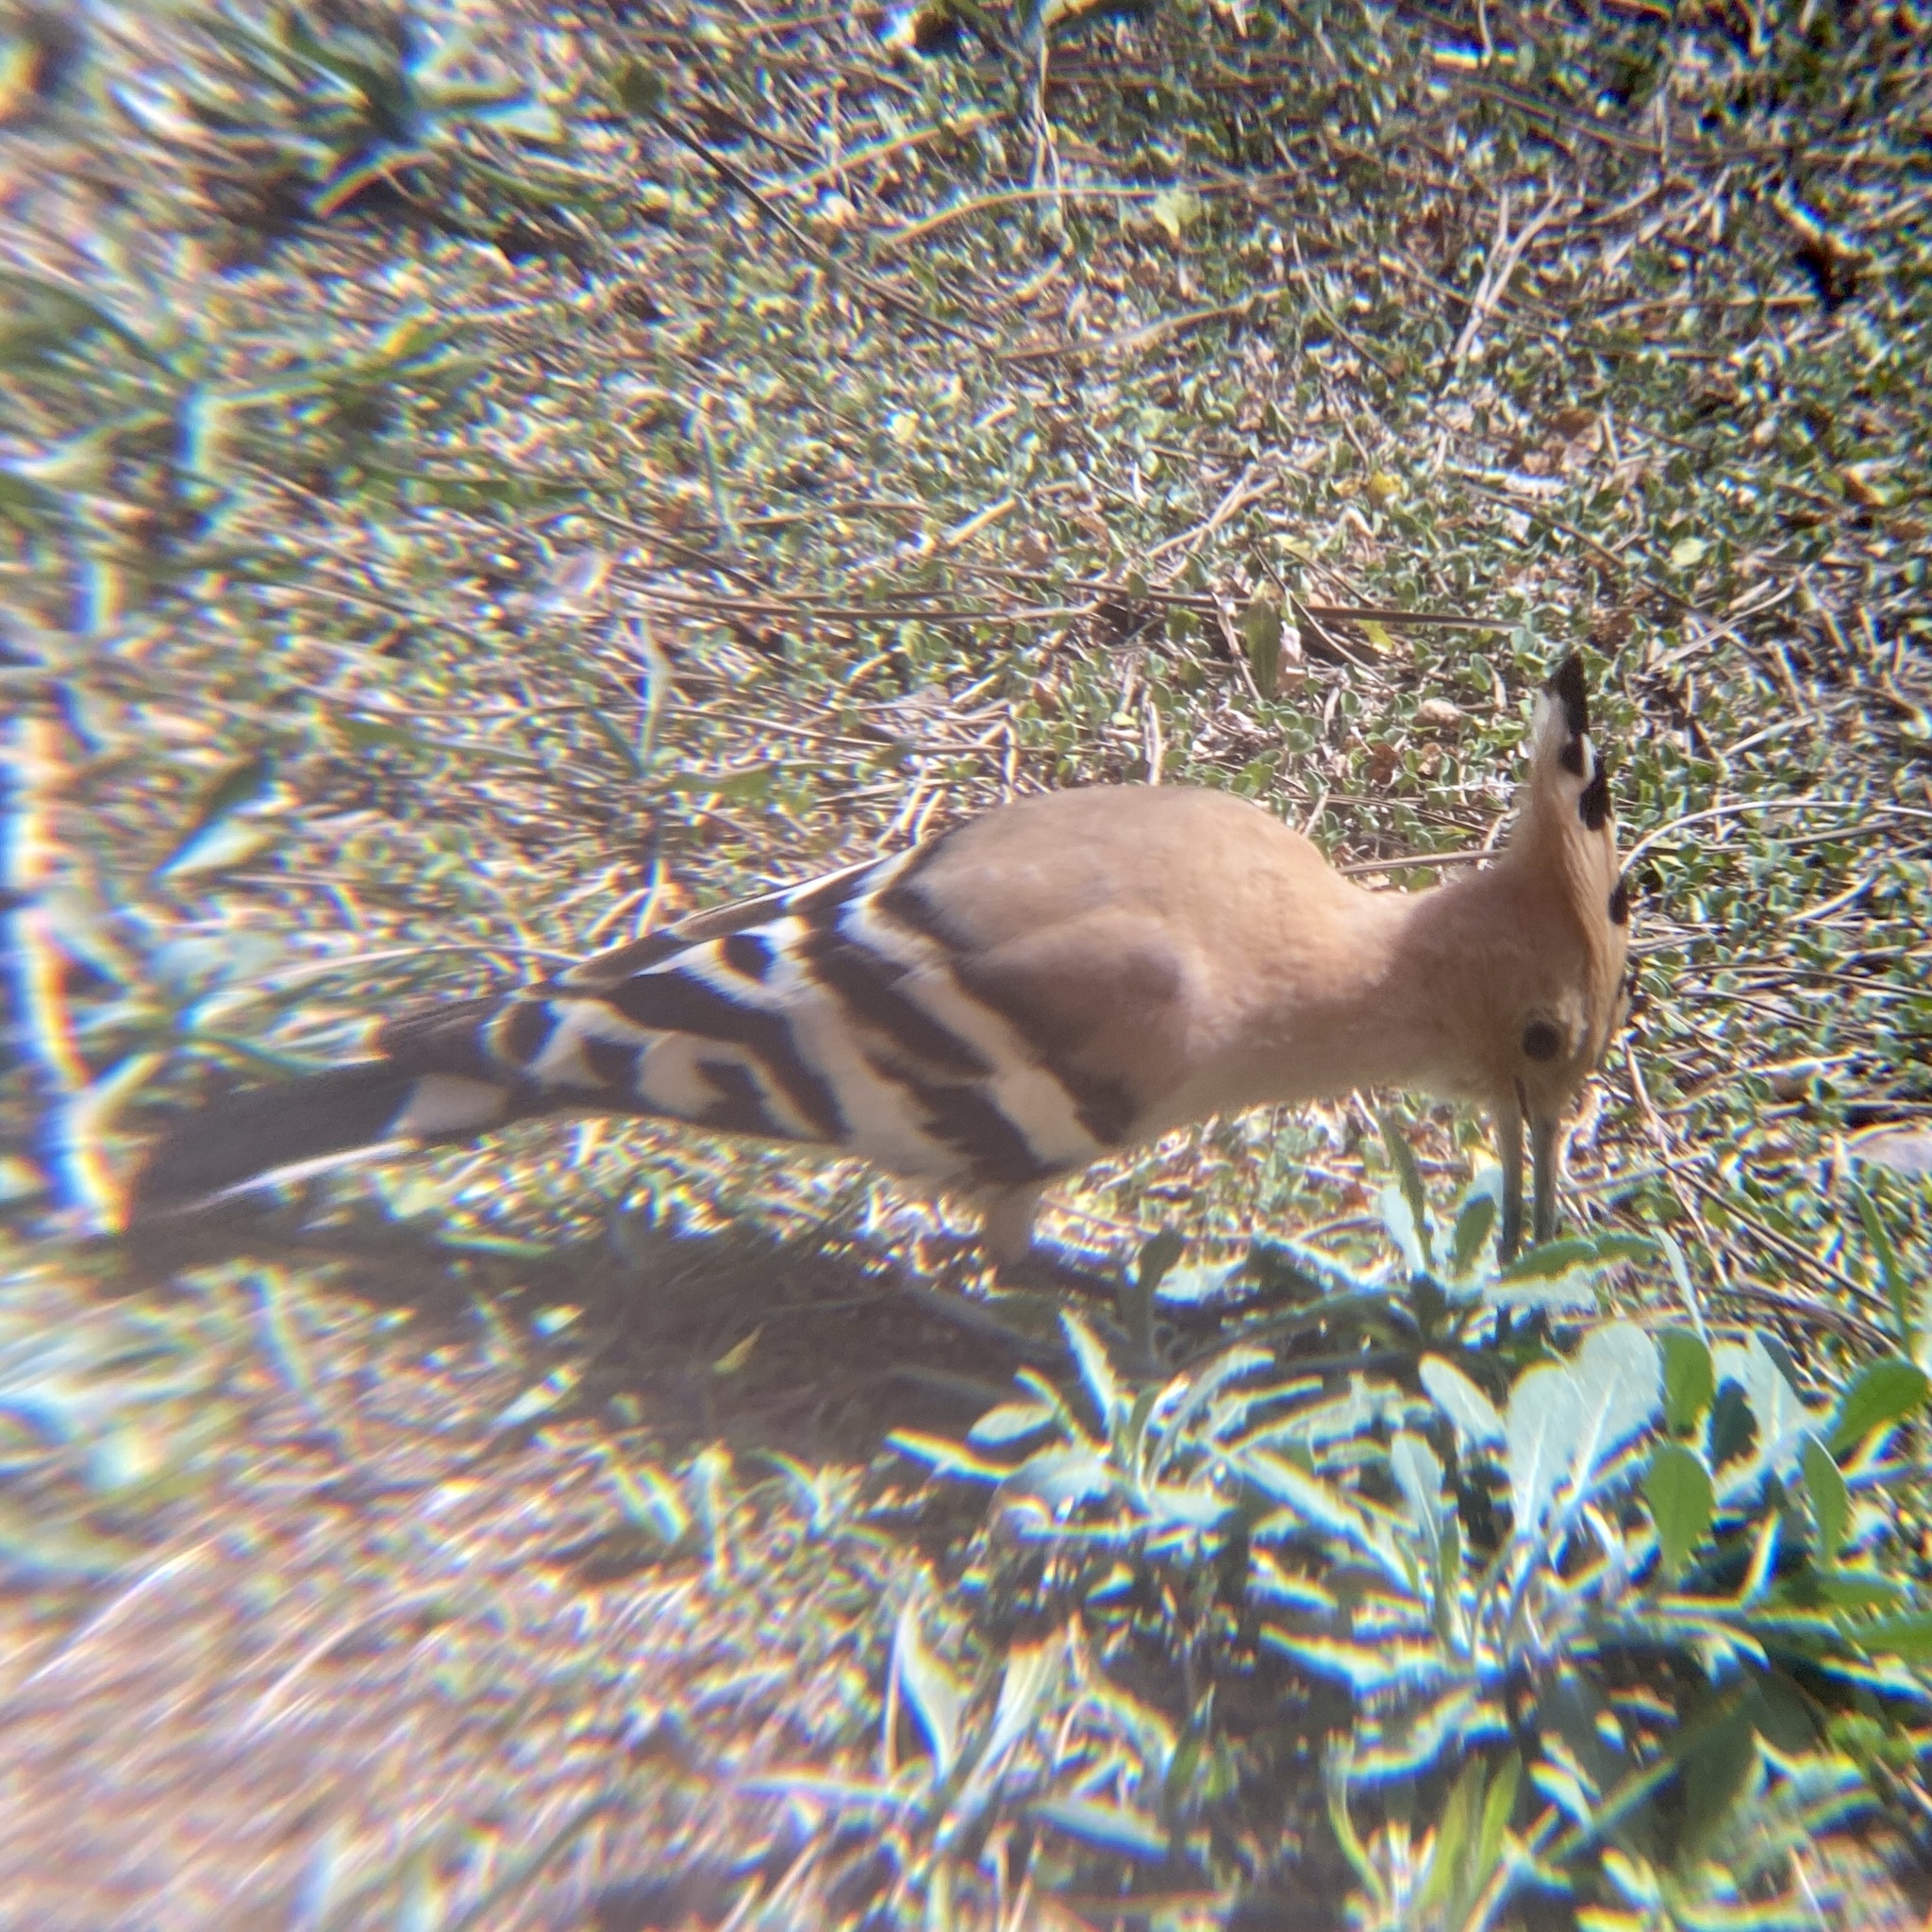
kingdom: Animalia
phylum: Chordata
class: Aves
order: Bucerotiformes
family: Upupidae
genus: Upupa
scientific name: Upupa epops
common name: Eurasian hoopoe
